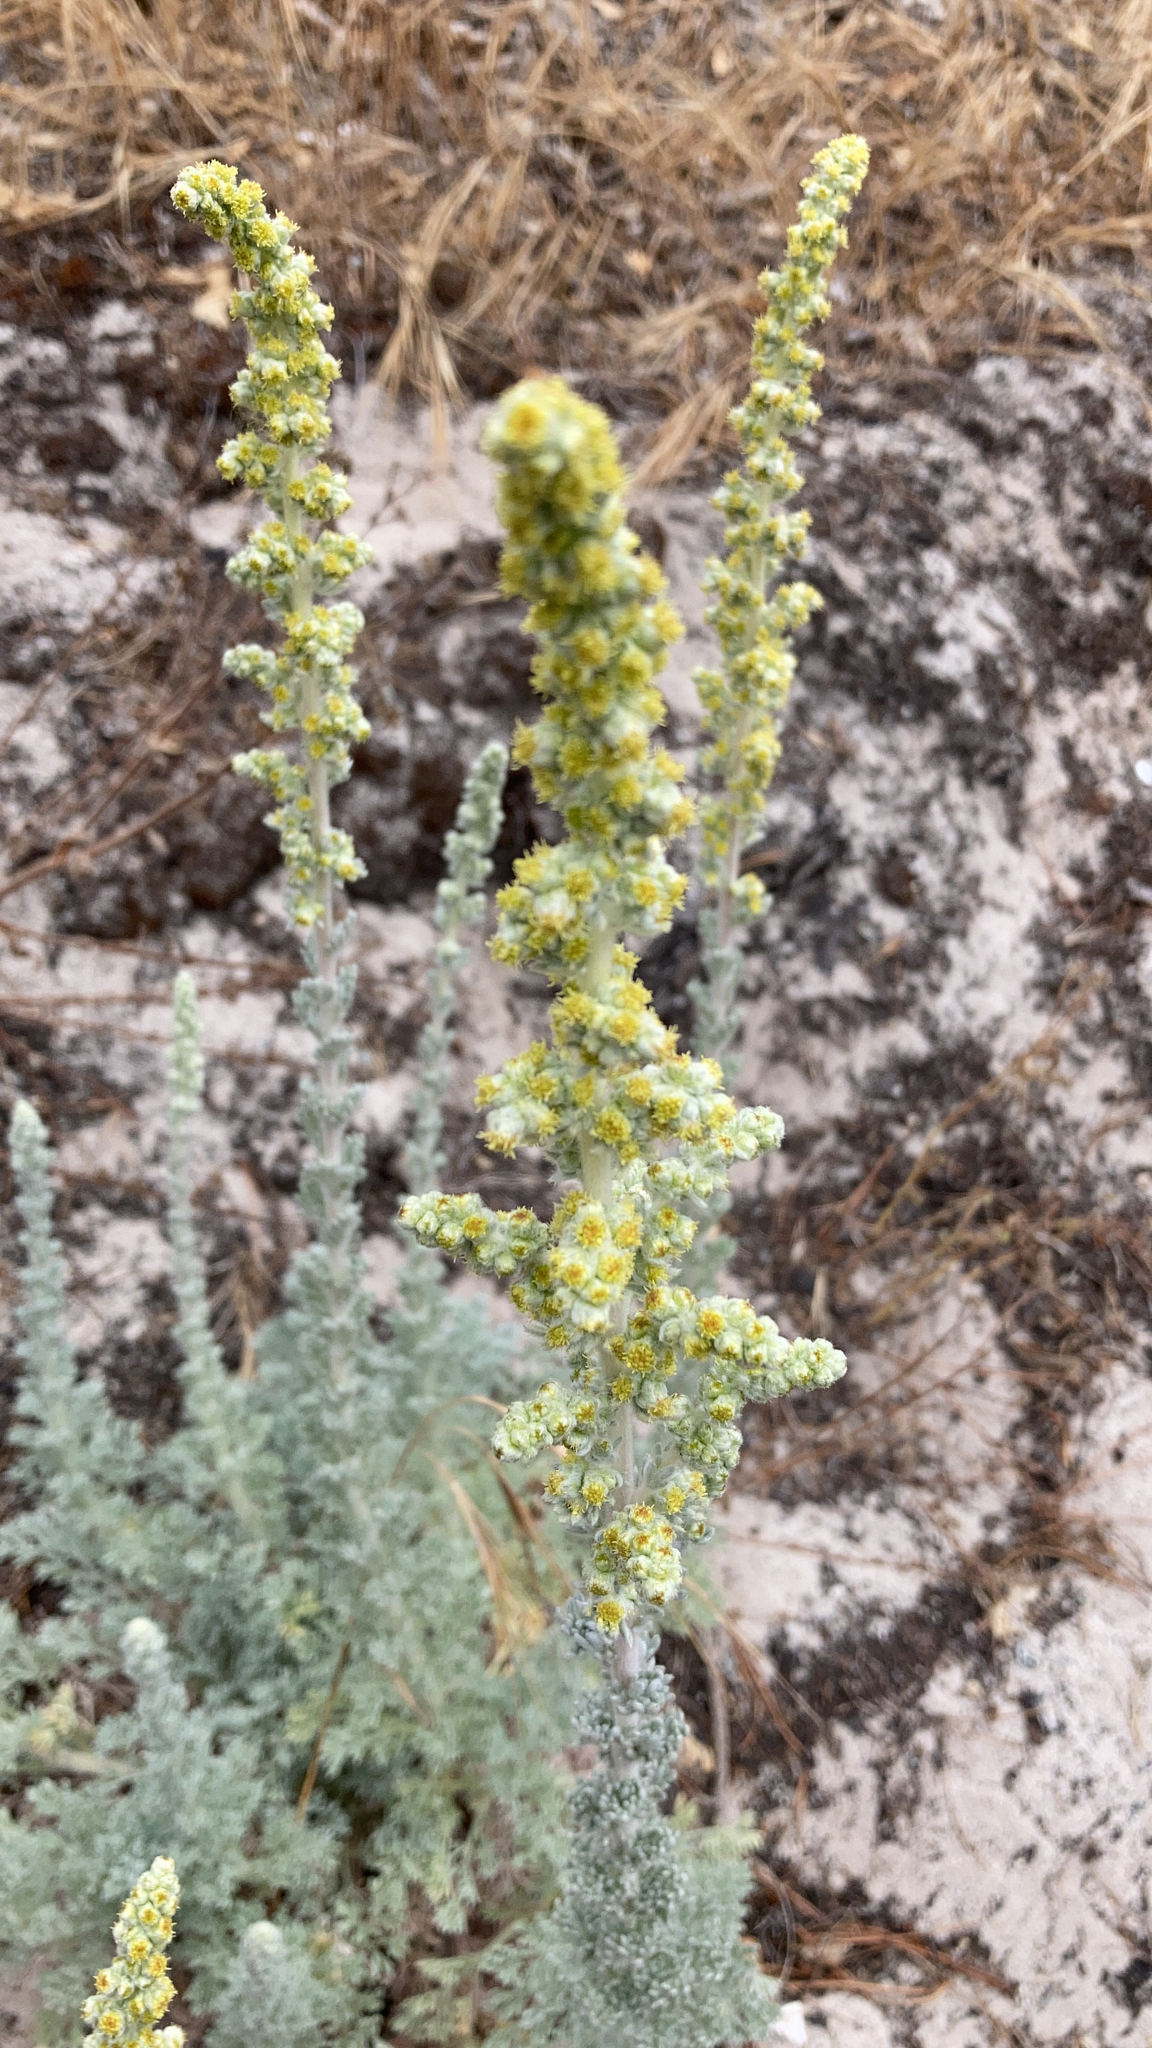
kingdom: Plantae
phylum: Tracheophyta
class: Magnoliopsida
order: Asterales
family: Asteraceae
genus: Artemisia
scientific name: Artemisia pycnocephala
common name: Coastal sagewort
